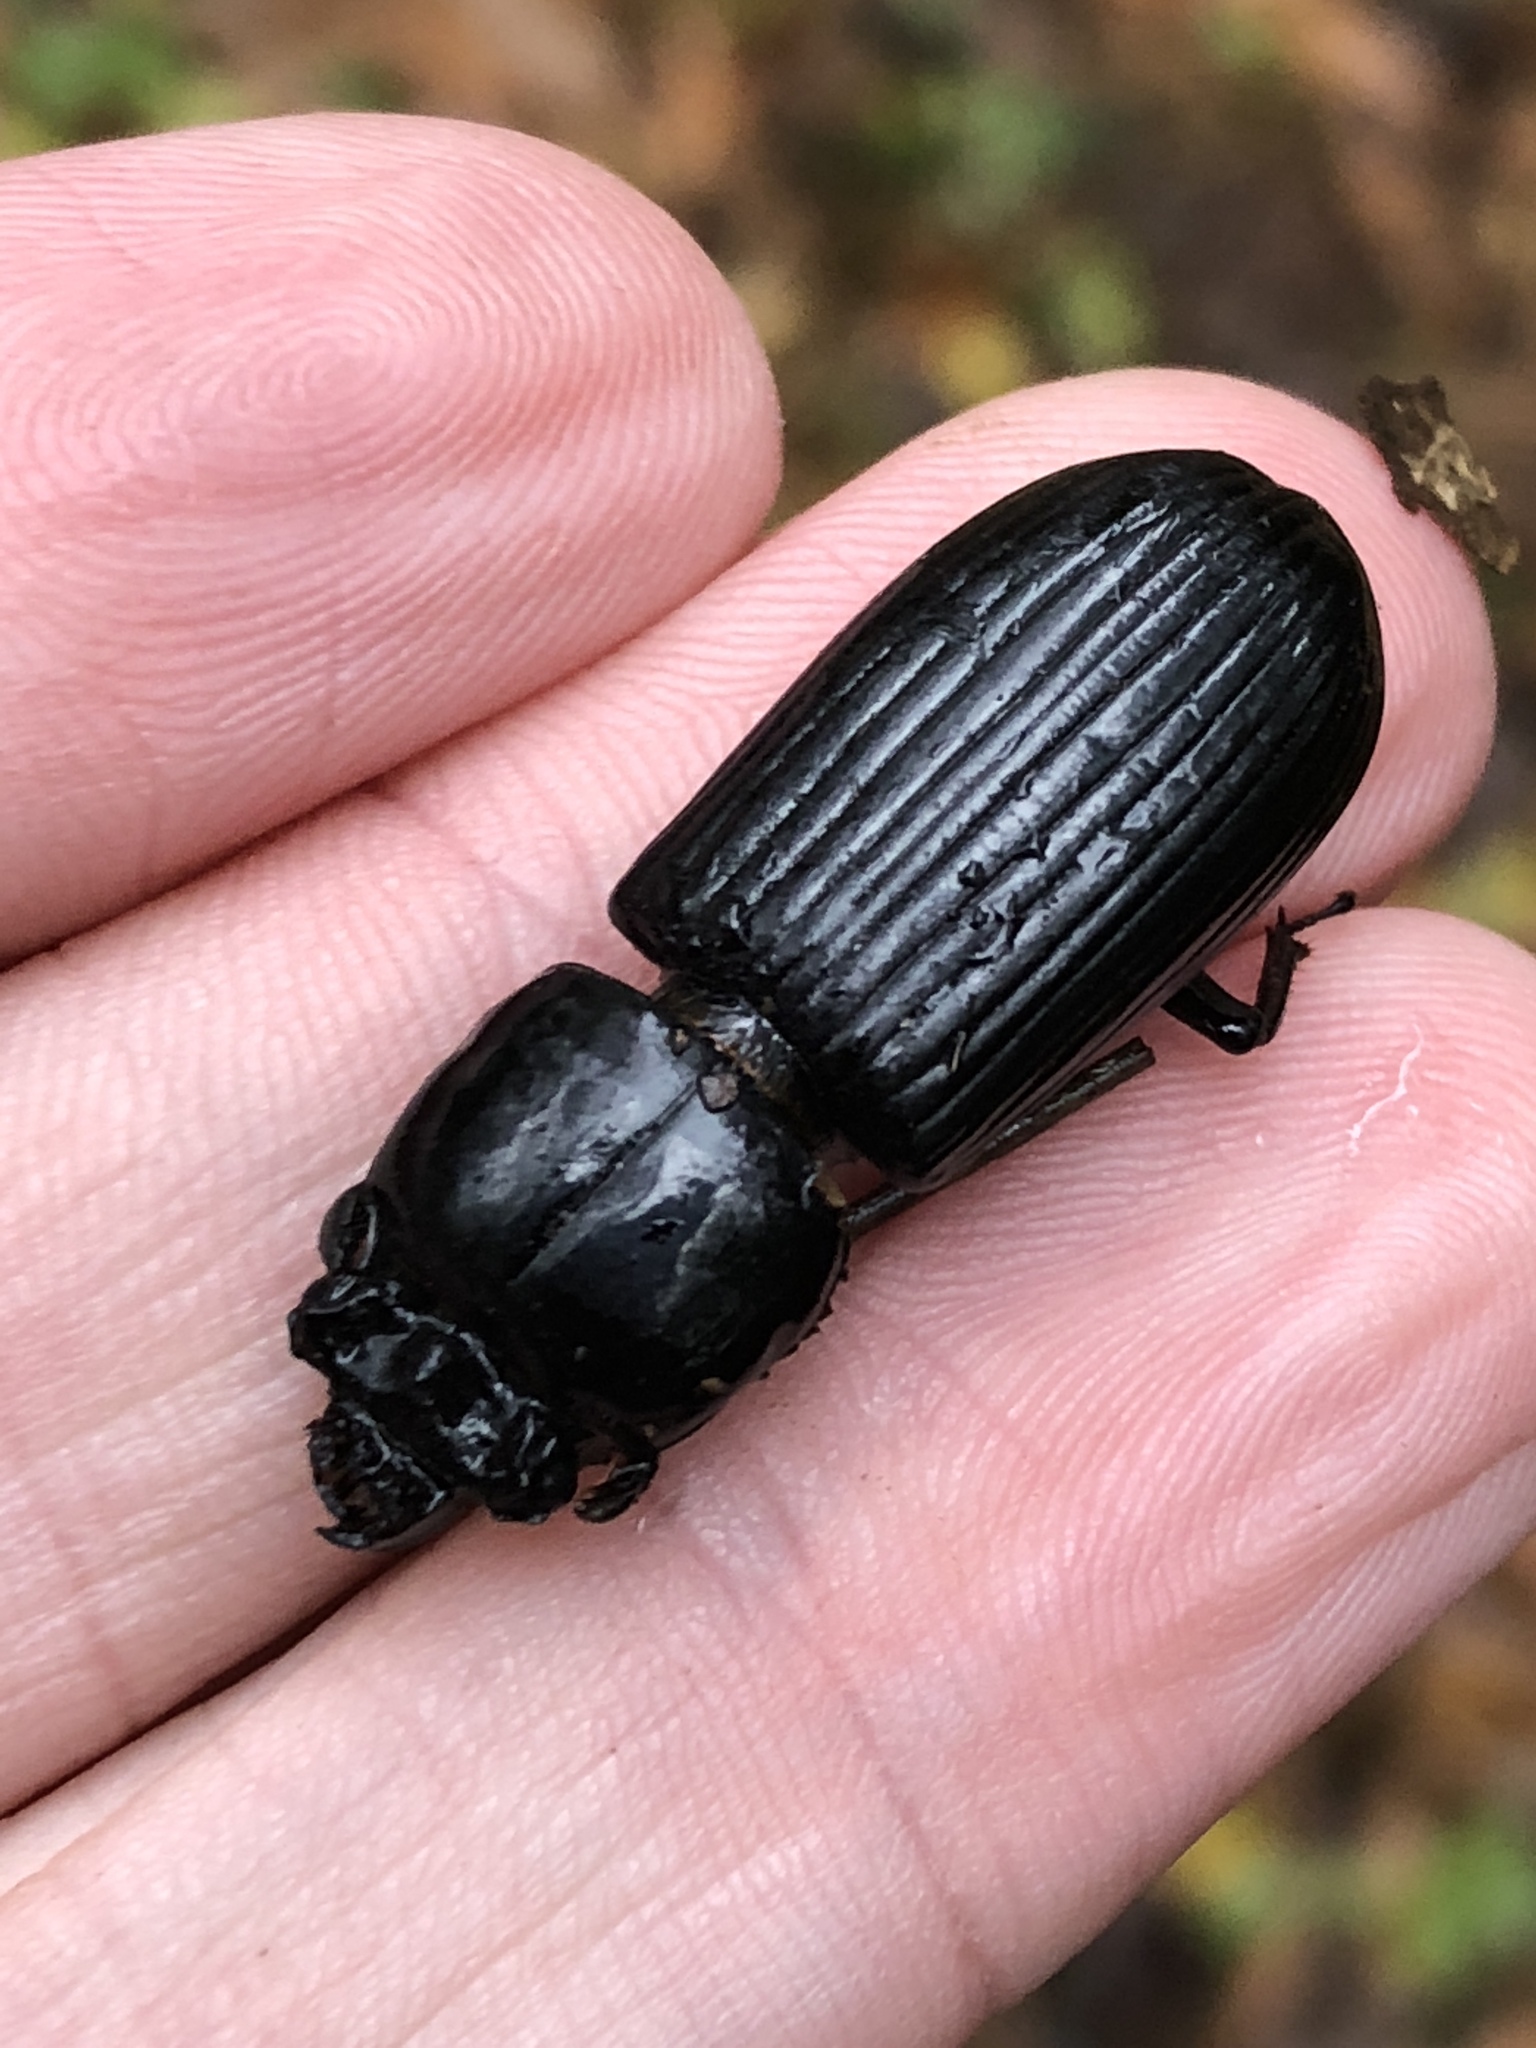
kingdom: Animalia
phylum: Arthropoda
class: Insecta
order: Coleoptera
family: Passalidae
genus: Odontotaenius
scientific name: Odontotaenius disjunctus
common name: Patent leather beetle
